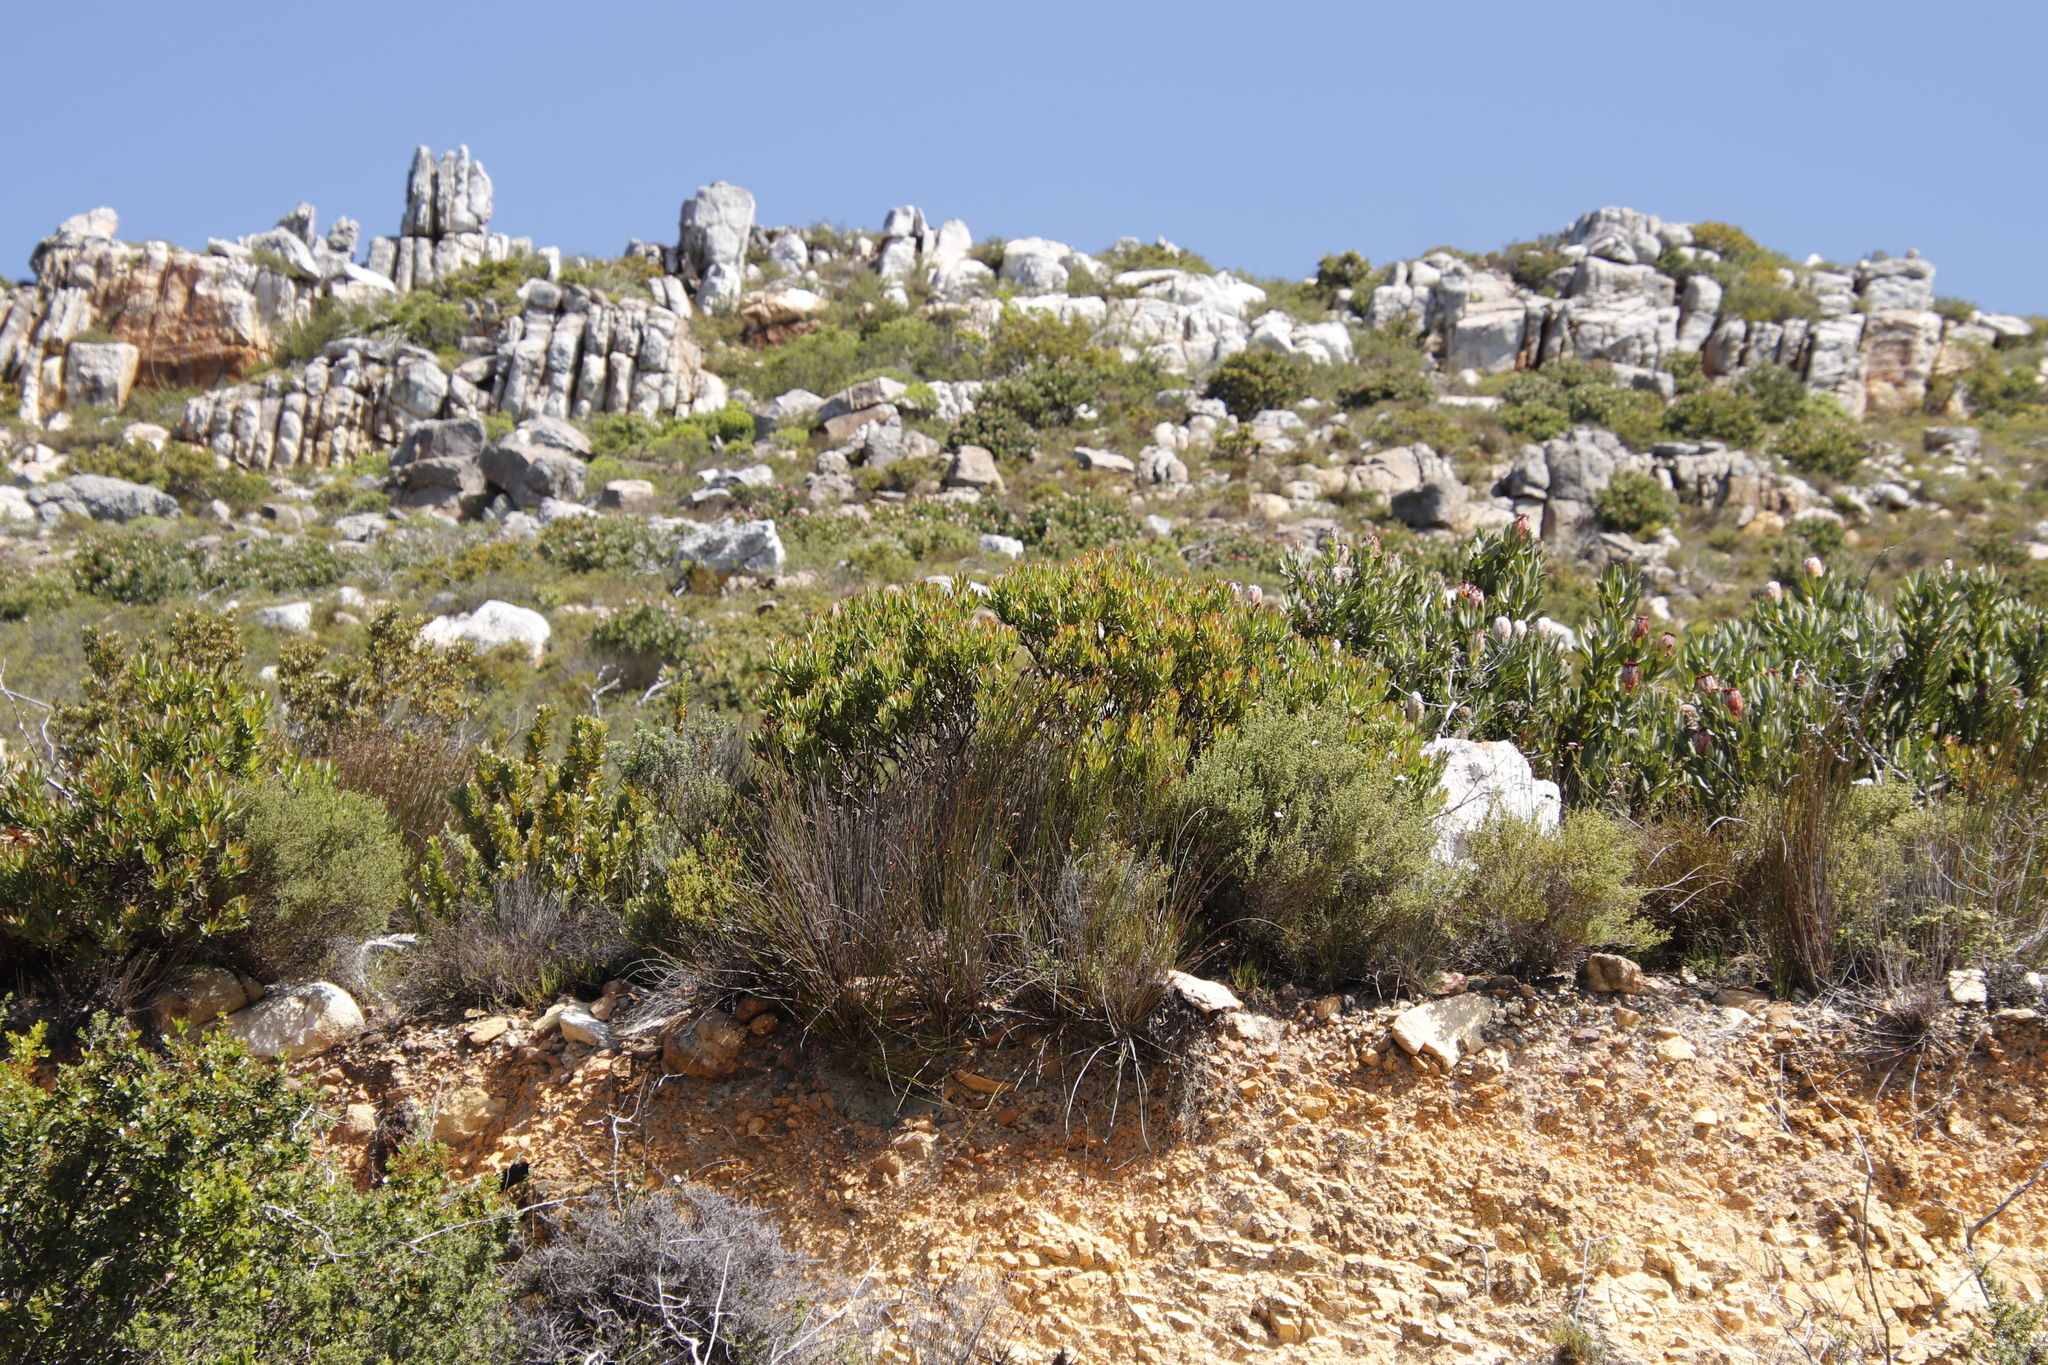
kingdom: Plantae
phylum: Tracheophyta
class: Magnoliopsida
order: Proteales
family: Proteaceae
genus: Leucadendron
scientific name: Leucadendron sessile
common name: Western sunbush
